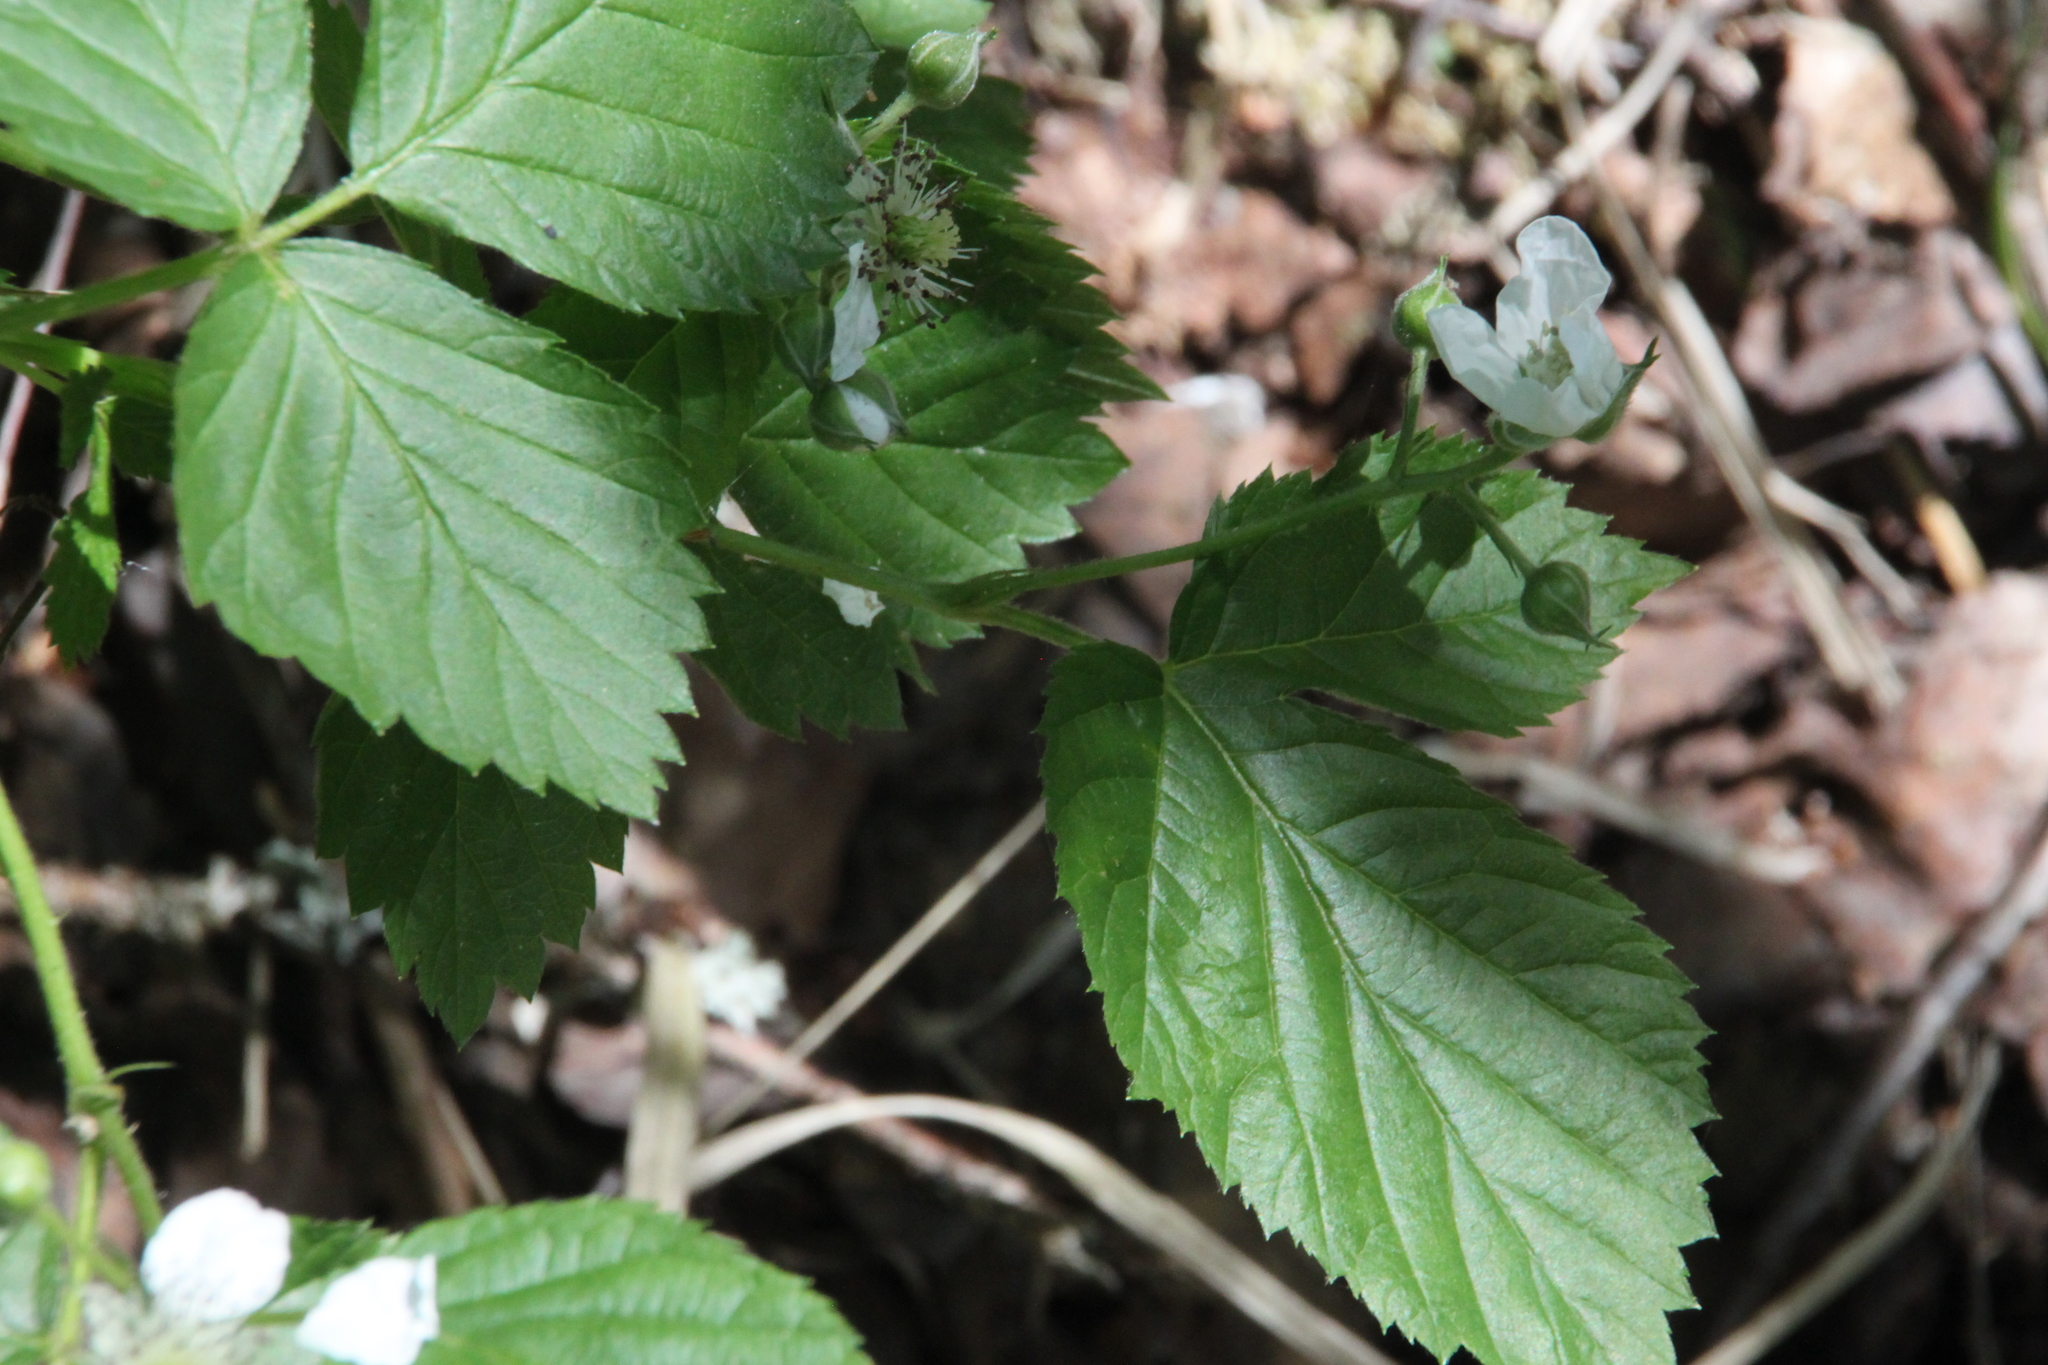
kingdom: Plantae
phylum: Tracheophyta
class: Magnoliopsida
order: Rosales
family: Rosaceae
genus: Rubus
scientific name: Rubus polonicus
